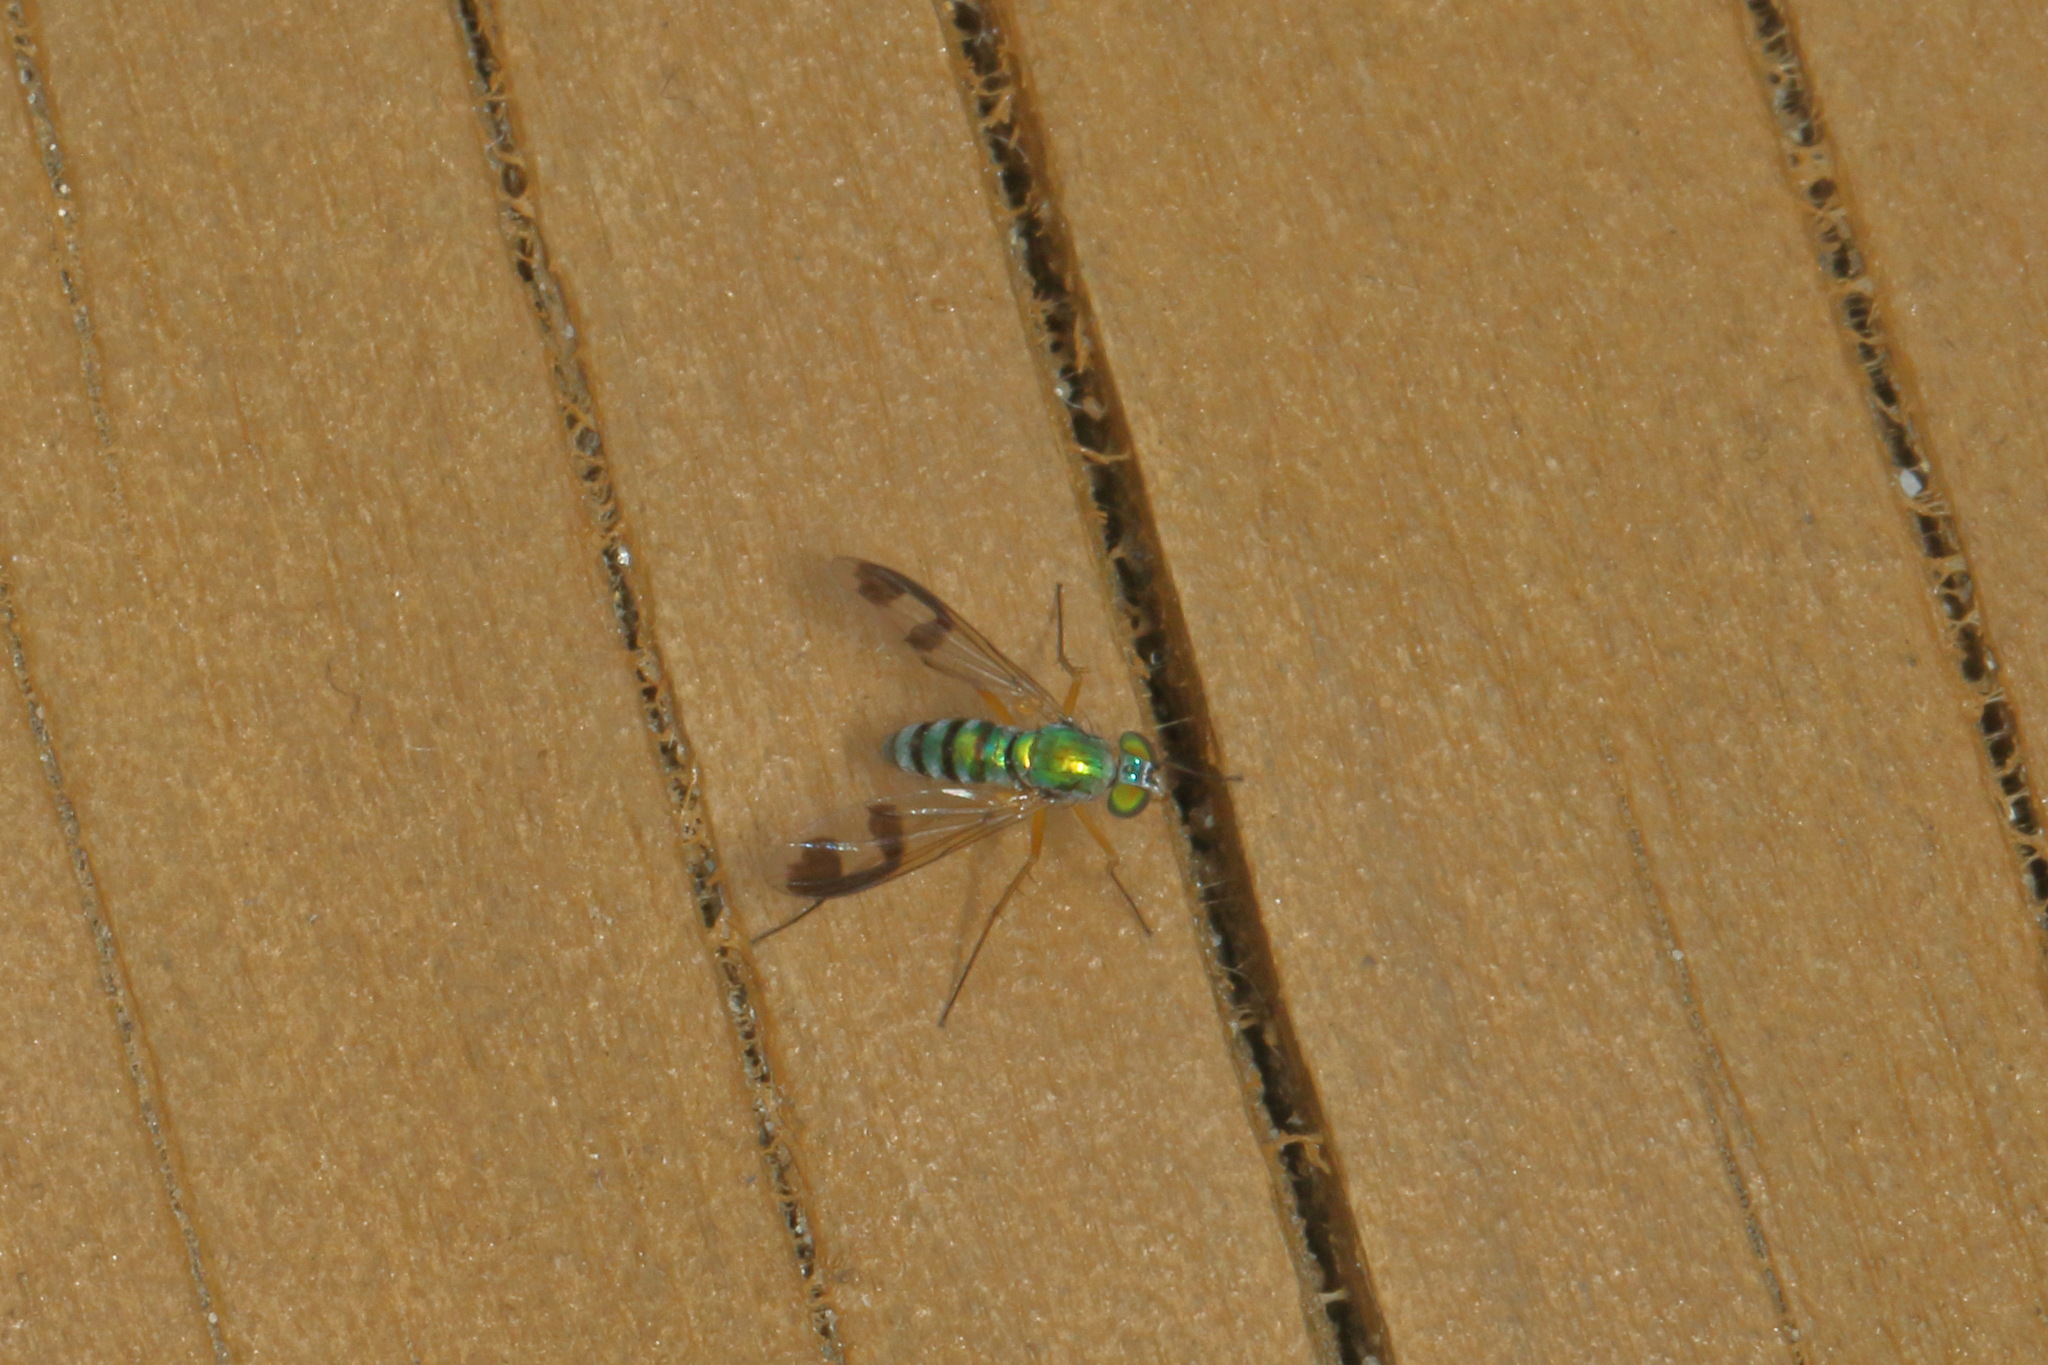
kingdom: Animalia
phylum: Arthropoda
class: Insecta
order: Diptera
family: Dolichopodidae
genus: Austrosciapus
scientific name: Austrosciapus proximus
